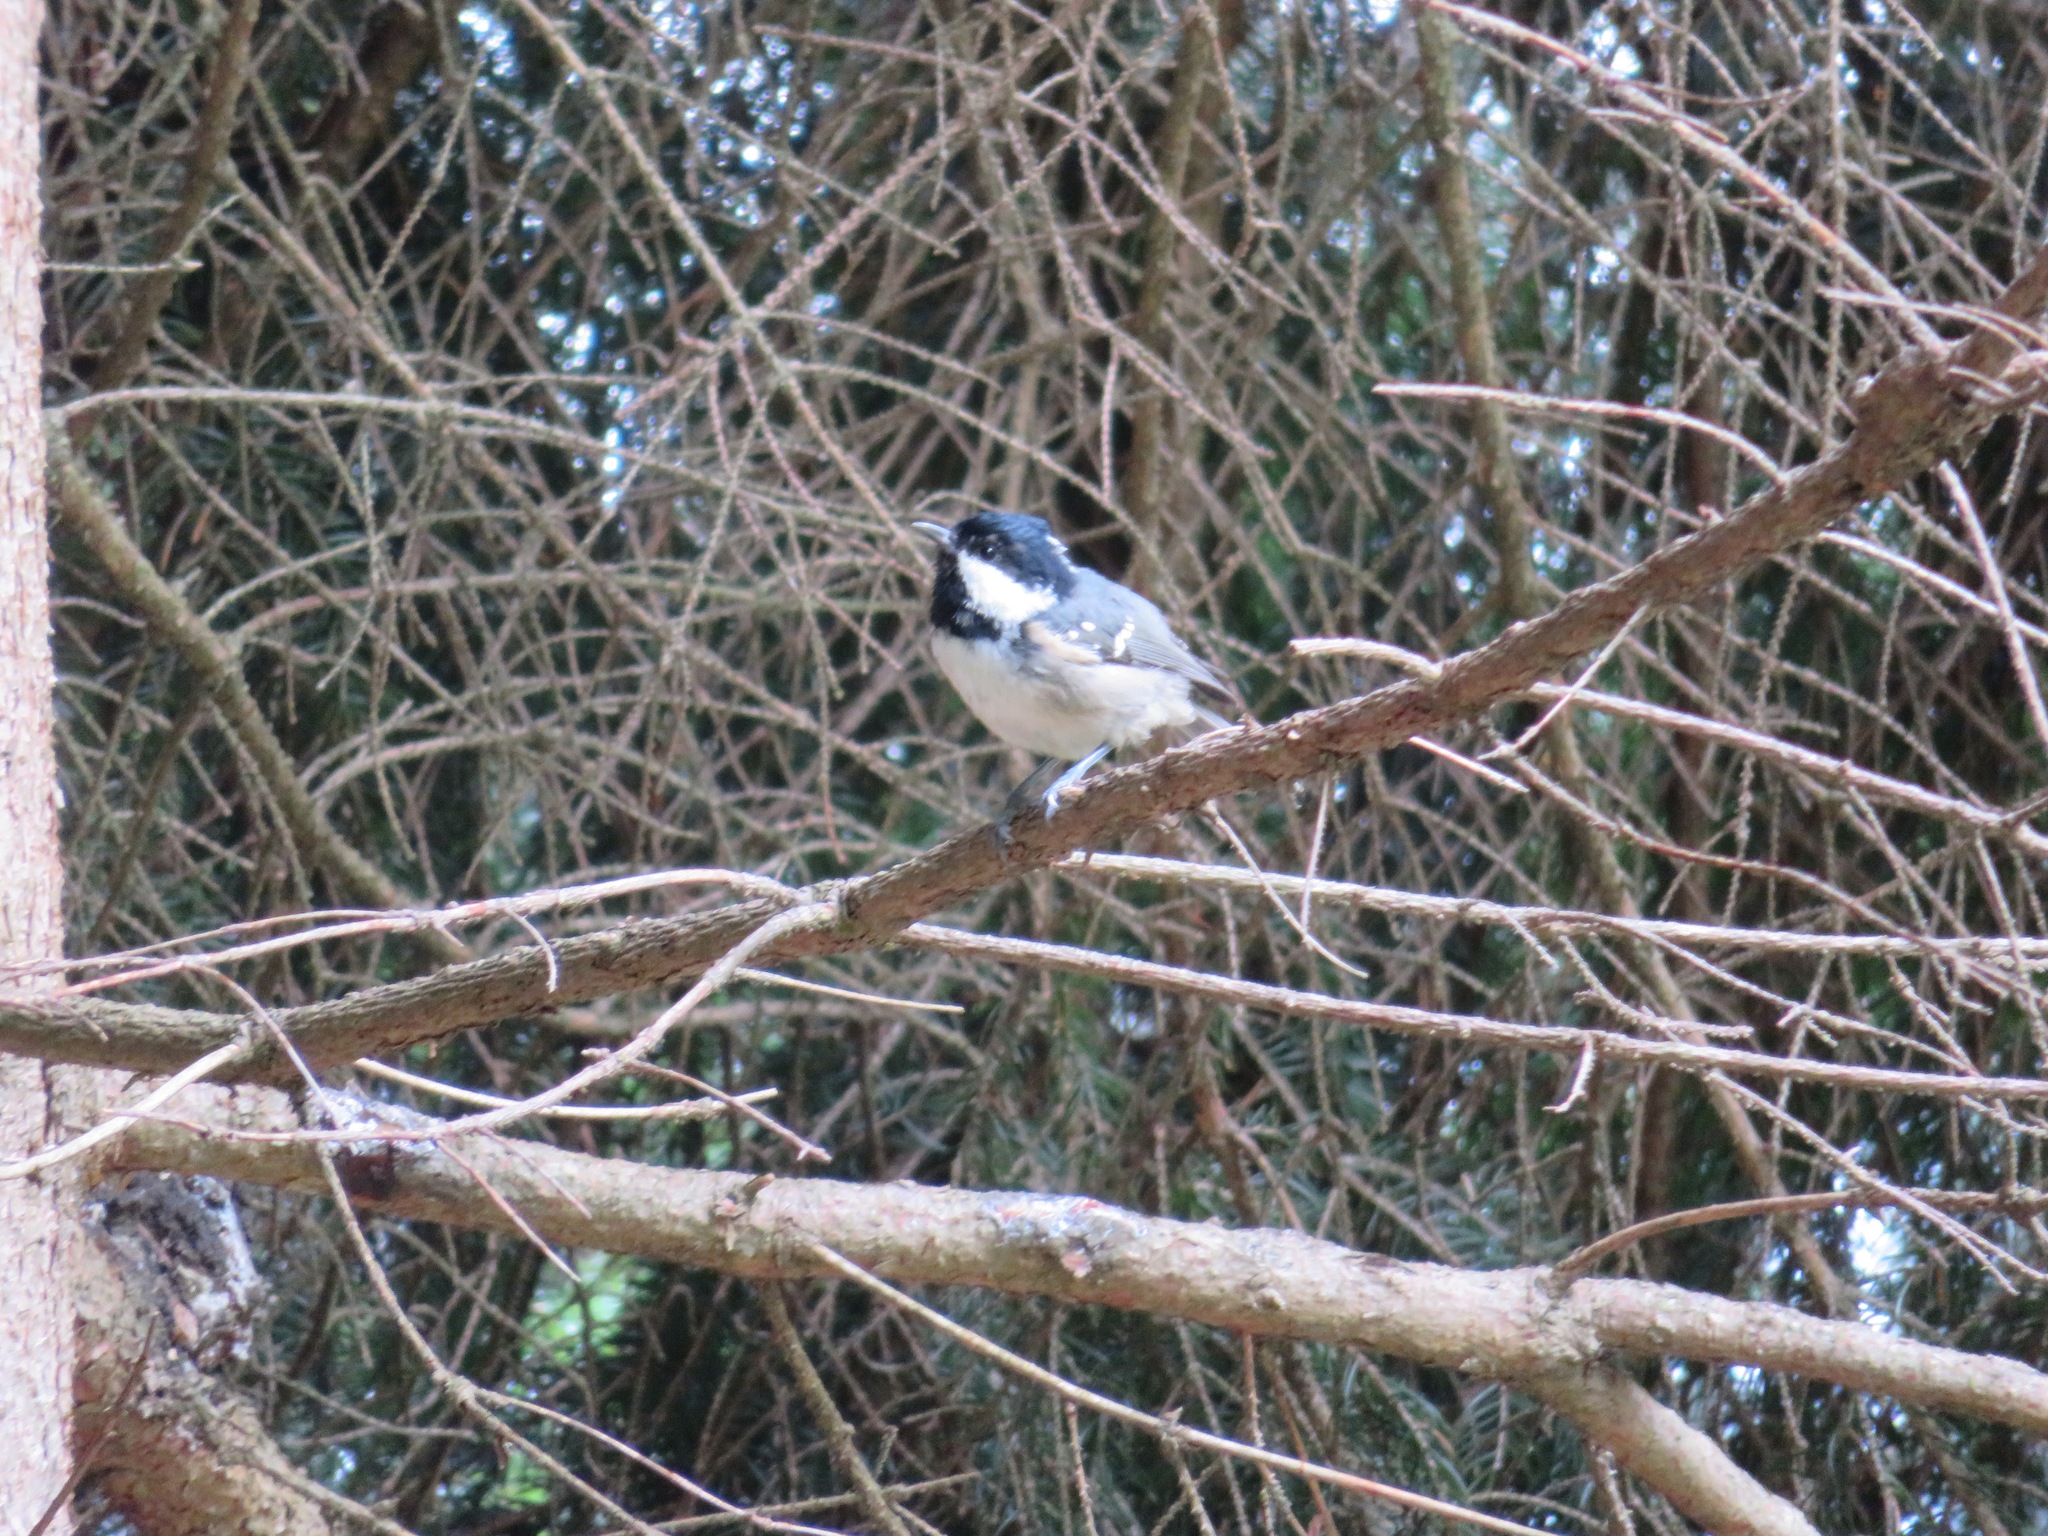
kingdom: Animalia
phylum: Chordata
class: Aves
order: Passeriformes
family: Paridae
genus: Periparus
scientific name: Periparus ater
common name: Coal tit
